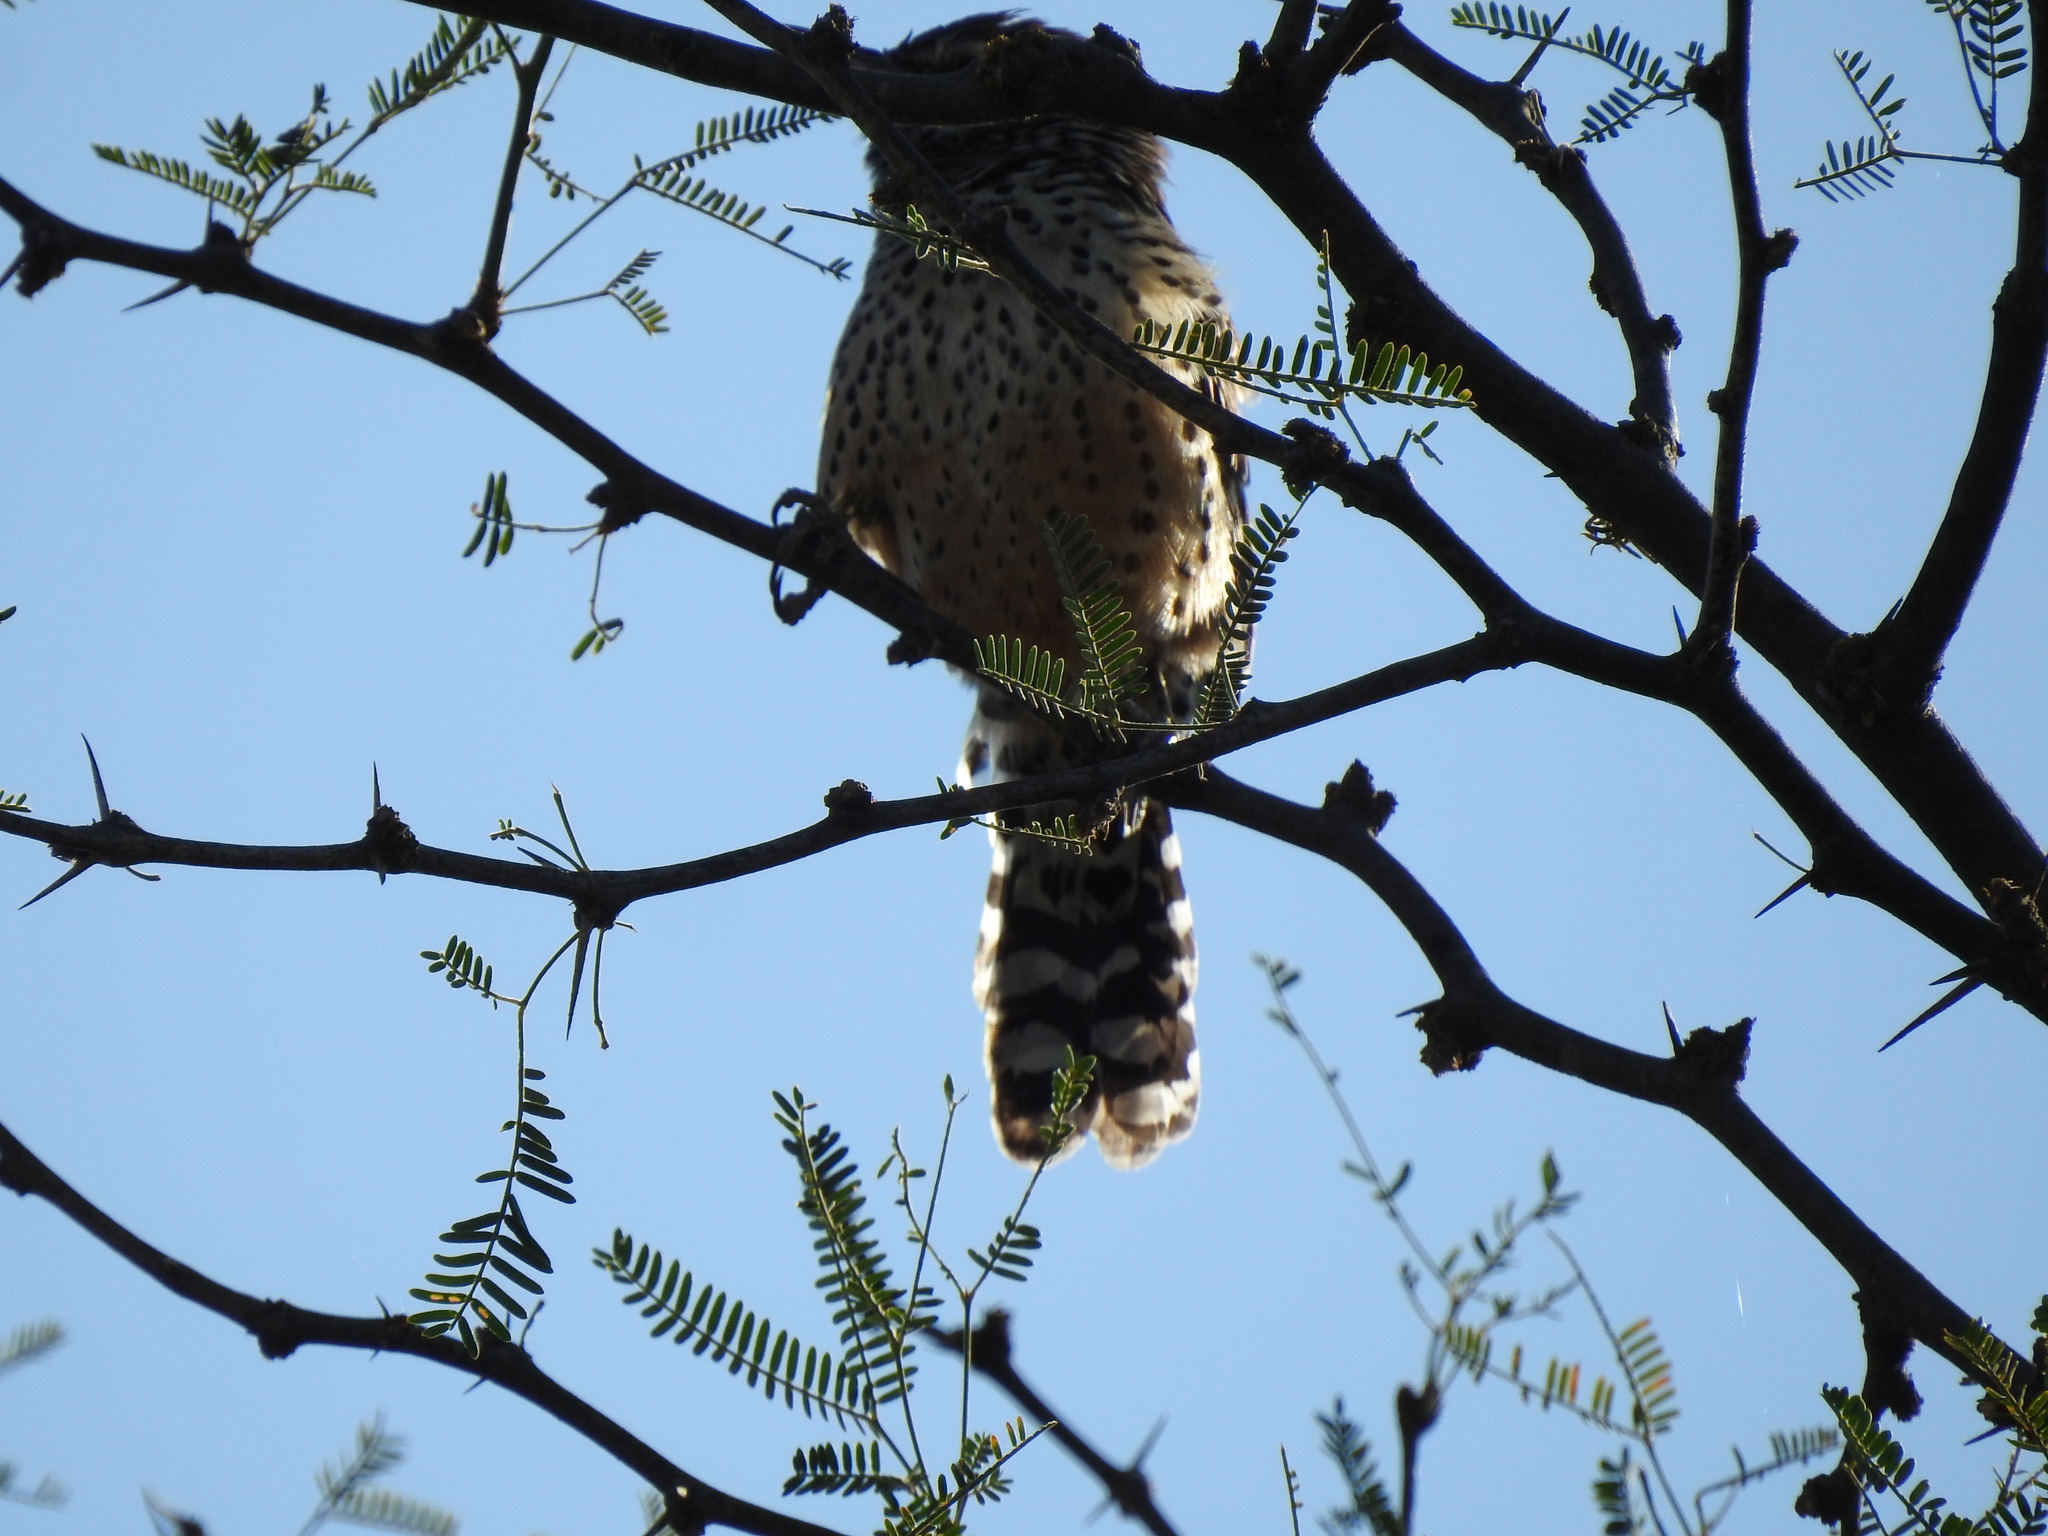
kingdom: Animalia
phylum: Chordata
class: Aves
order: Passeriformes
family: Troglodytidae
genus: Campylorhynchus
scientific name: Campylorhynchus brunneicapillus
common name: Cactus wren
